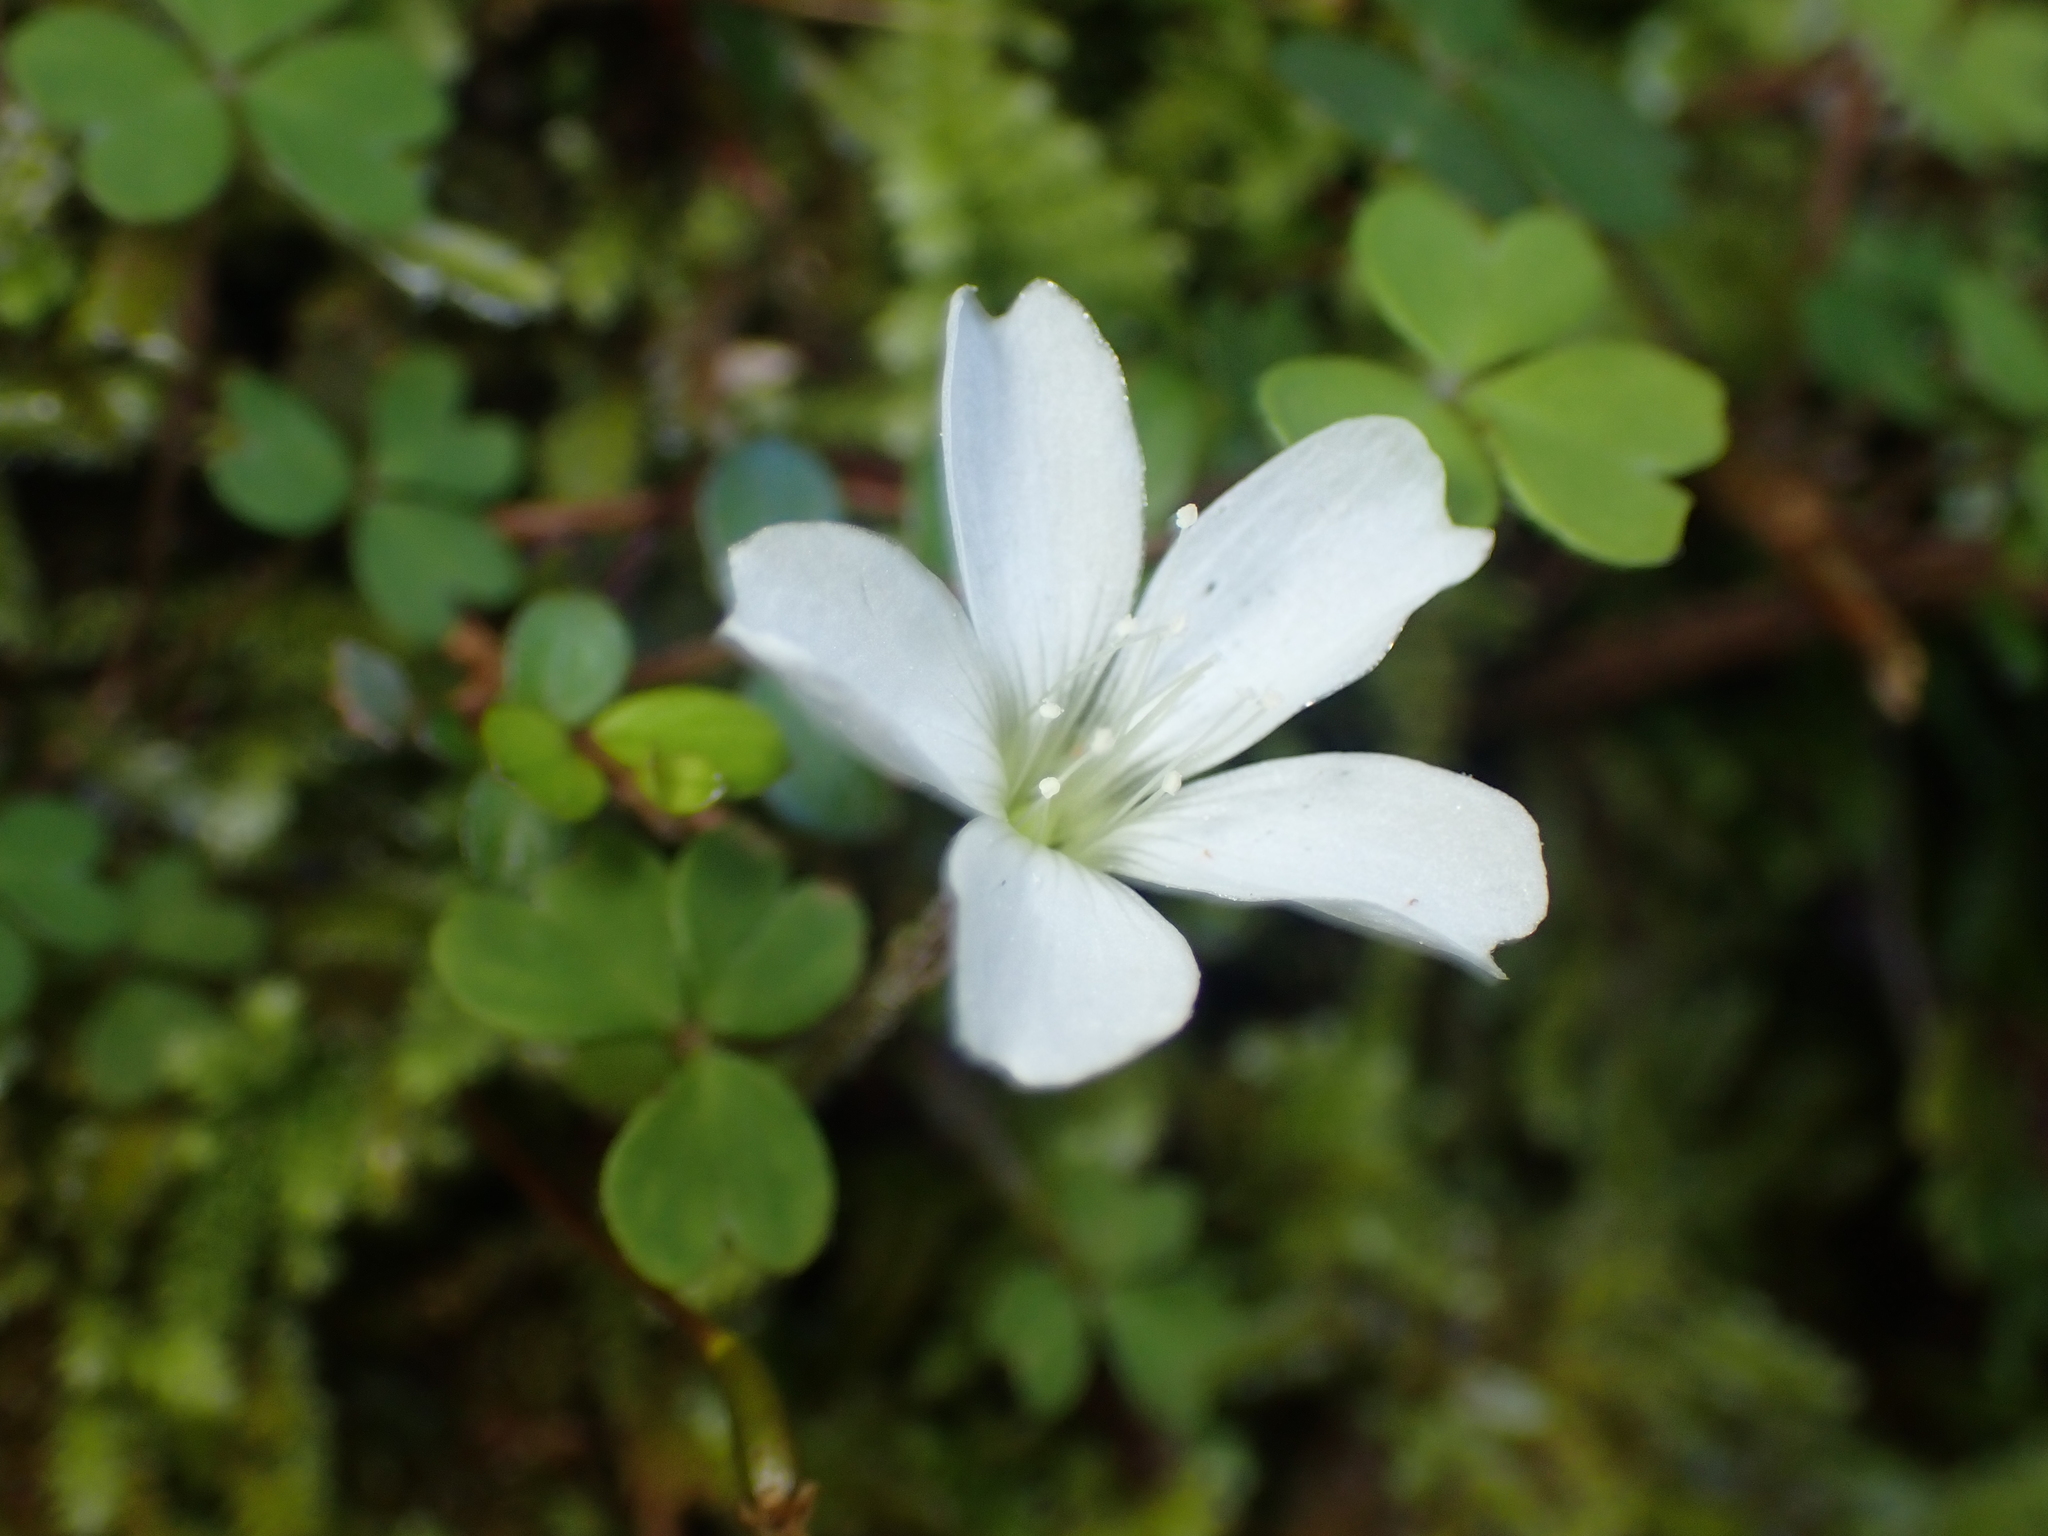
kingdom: Plantae
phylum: Tracheophyta
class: Magnoliopsida
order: Oxalidales
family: Oxalidaceae
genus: Oxalis
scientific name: Oxalis magellanica
